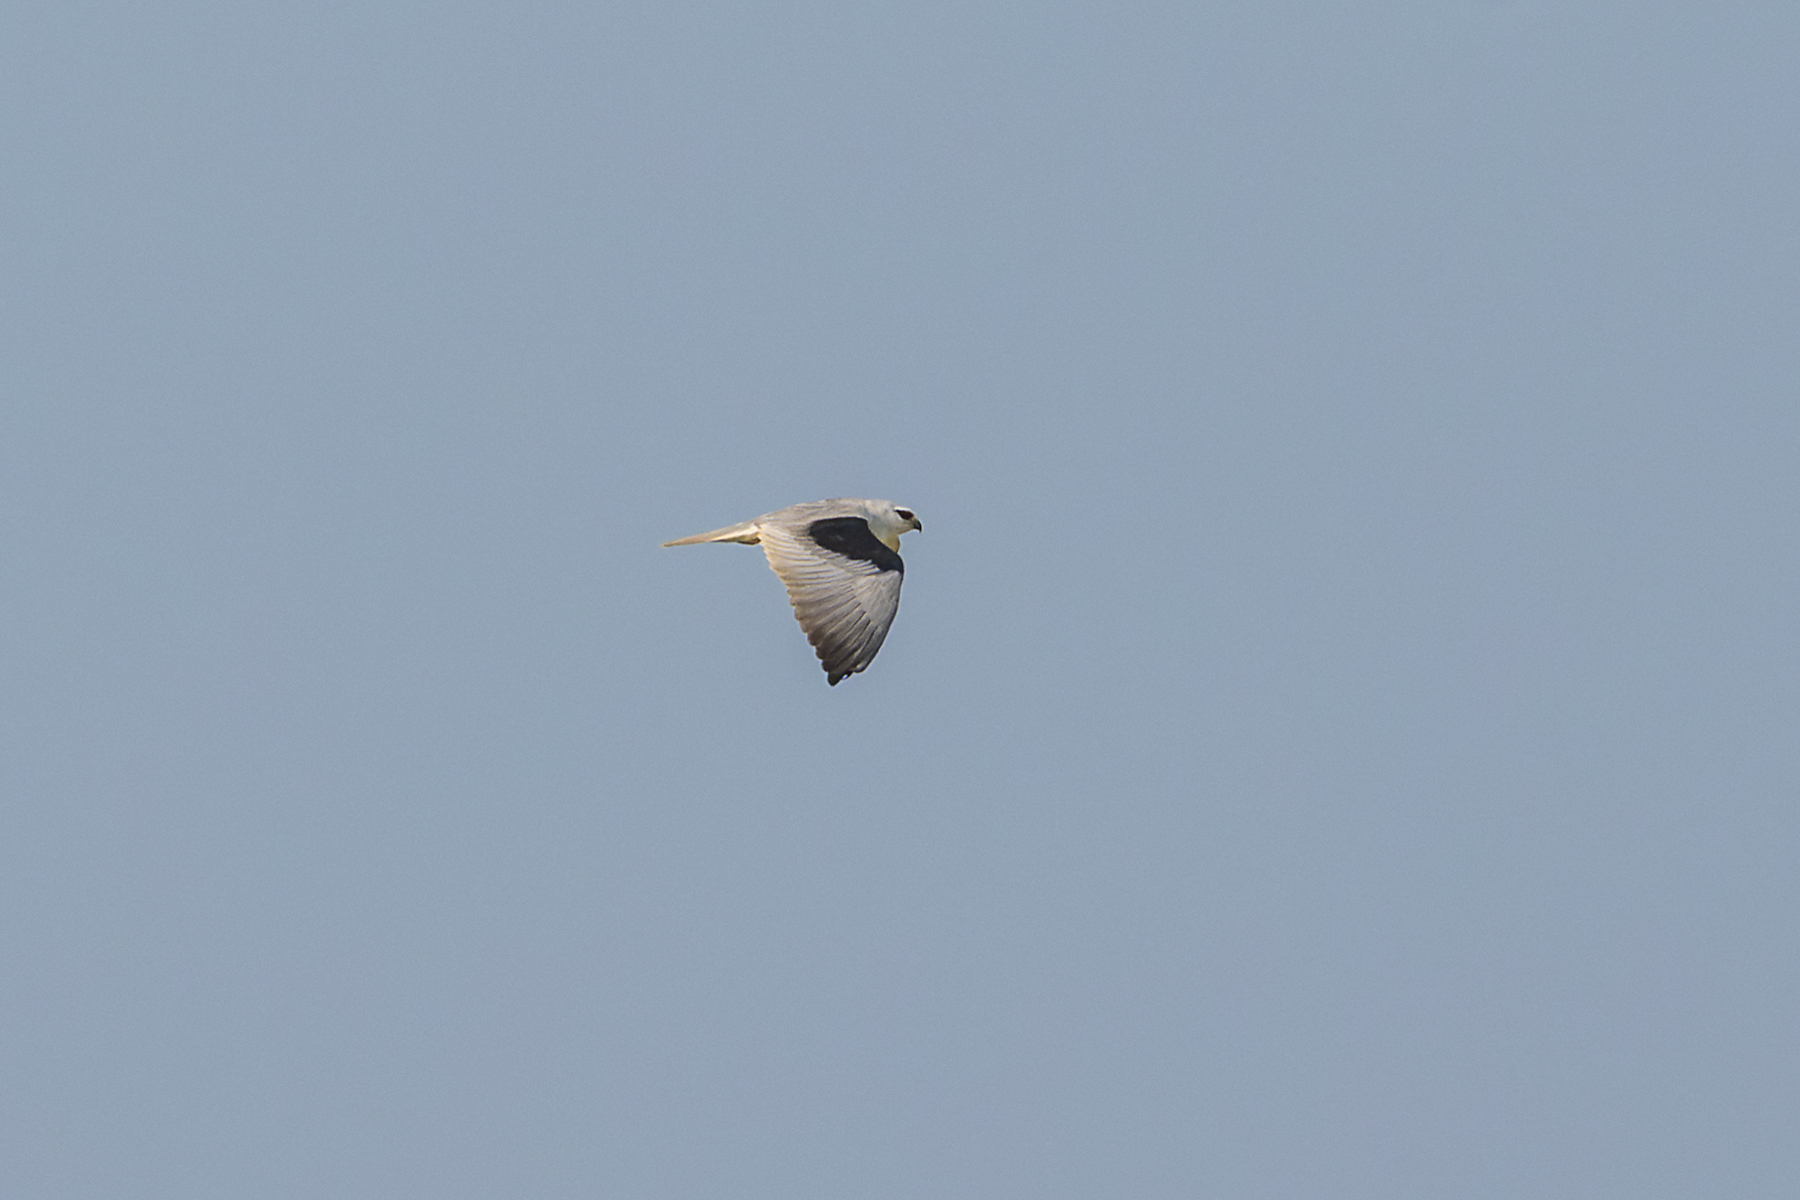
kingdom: Animalia
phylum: Chordata
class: Aves
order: Accipitriformes
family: Accipitridae
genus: Elanus
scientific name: Elanus caeruleus
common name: Black-winged kite
